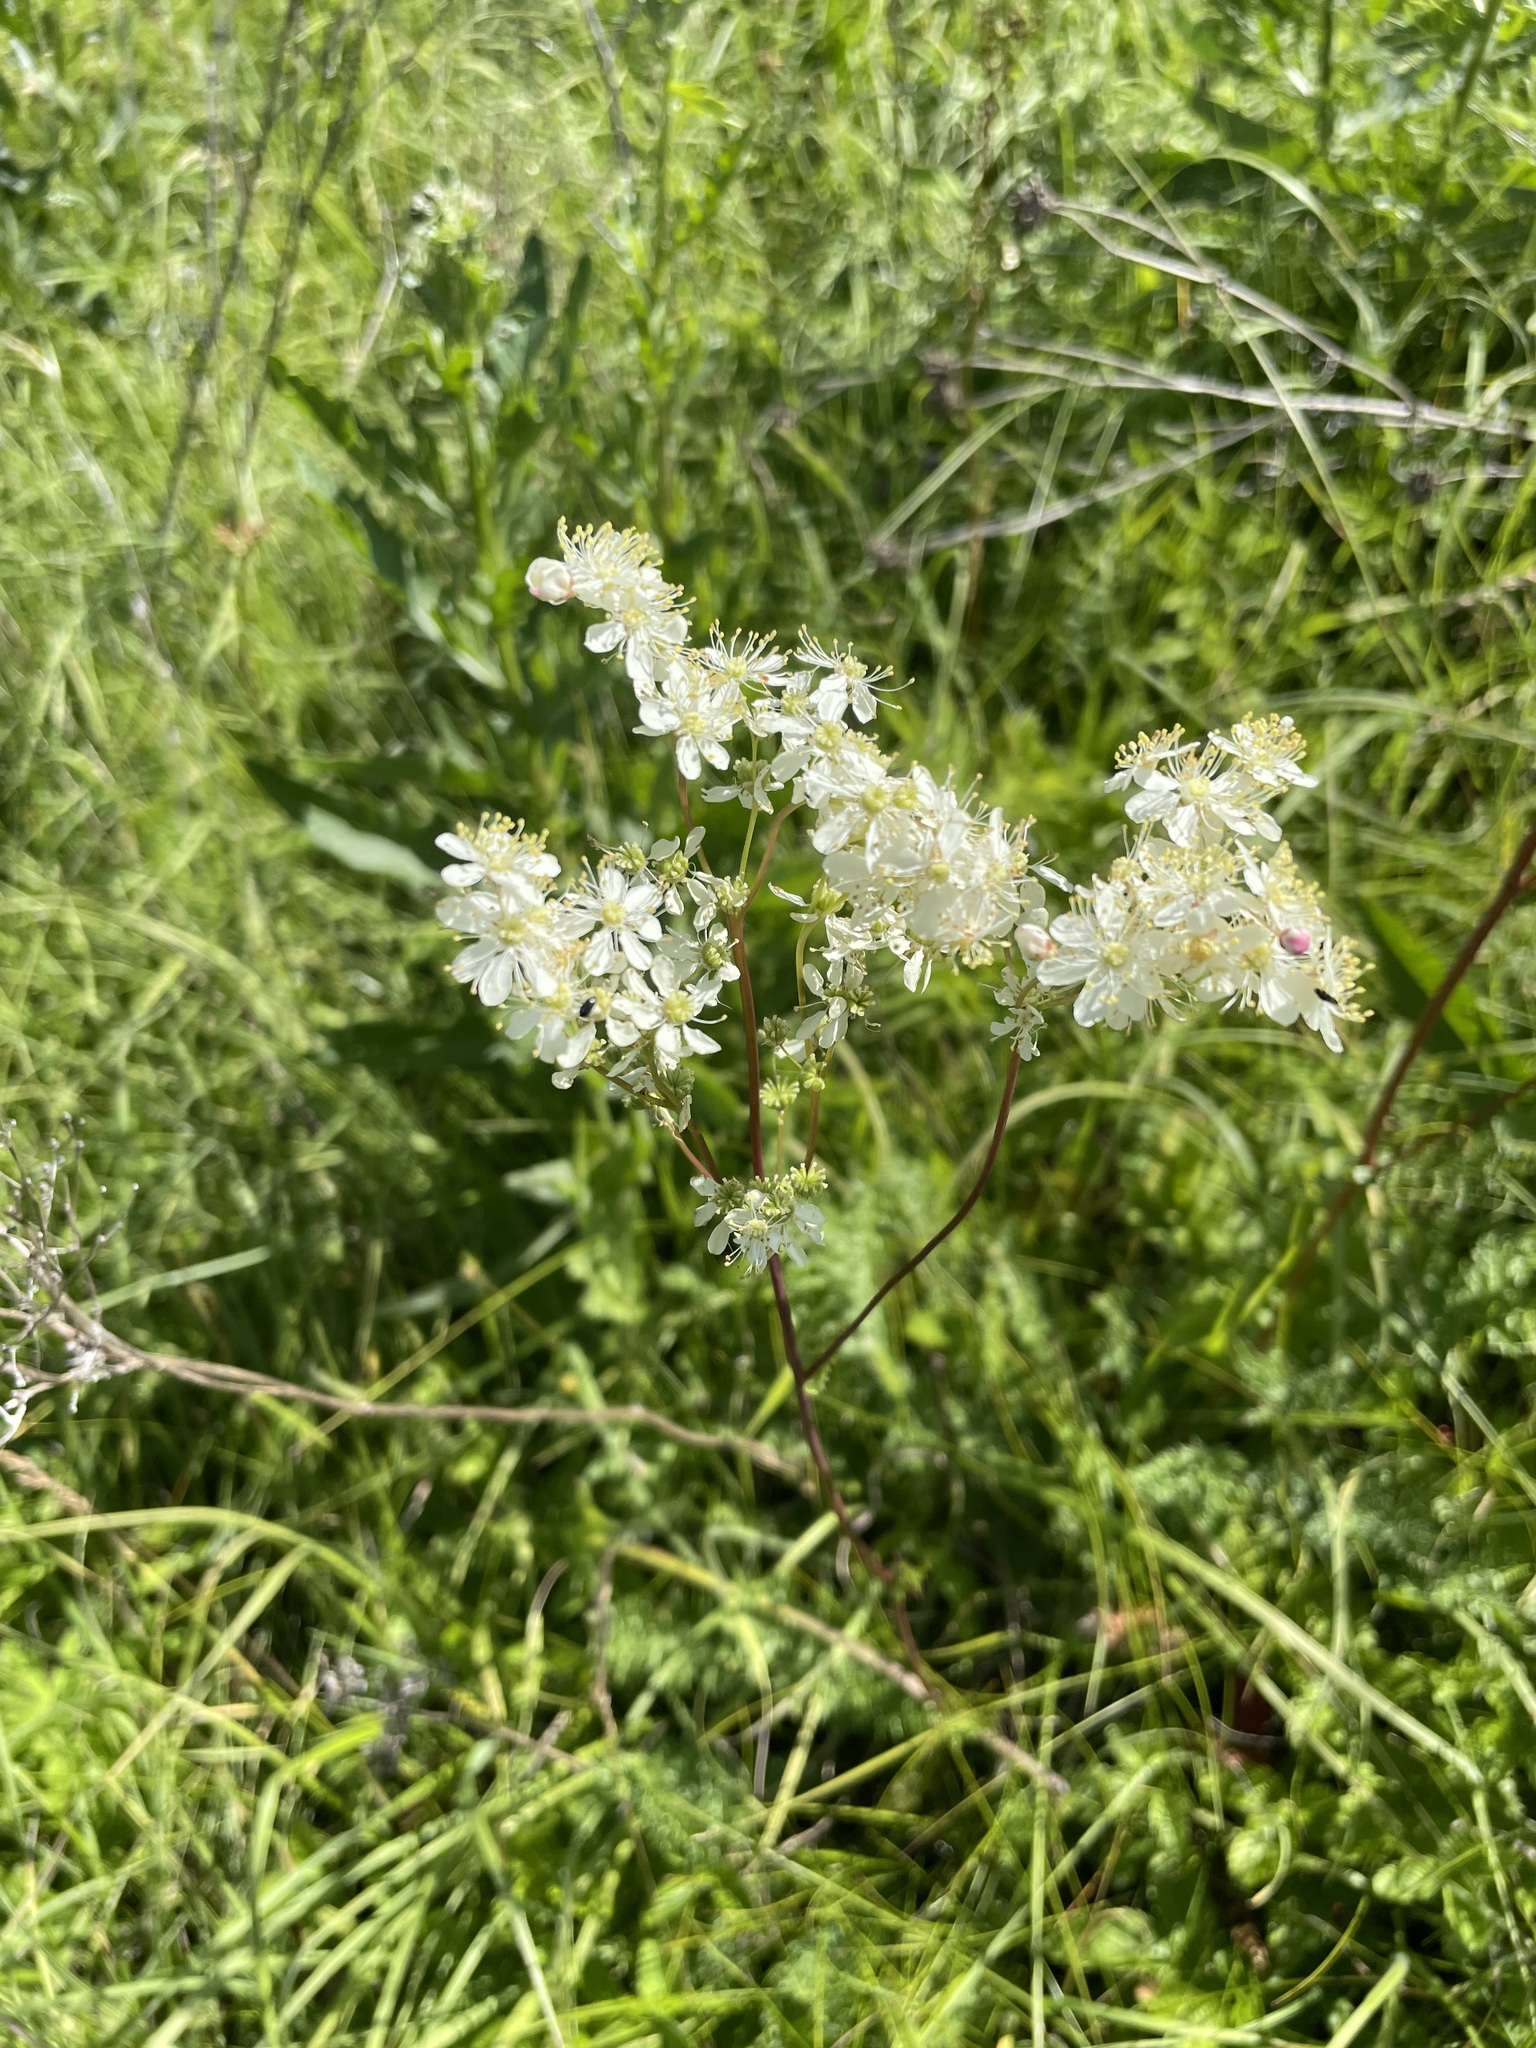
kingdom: Plantae
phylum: Tracheophyta
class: Magnoliopsida
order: Rosales
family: Rosaceae
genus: Filipendula
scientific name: Filipendula vulgaris
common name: Dropwort
